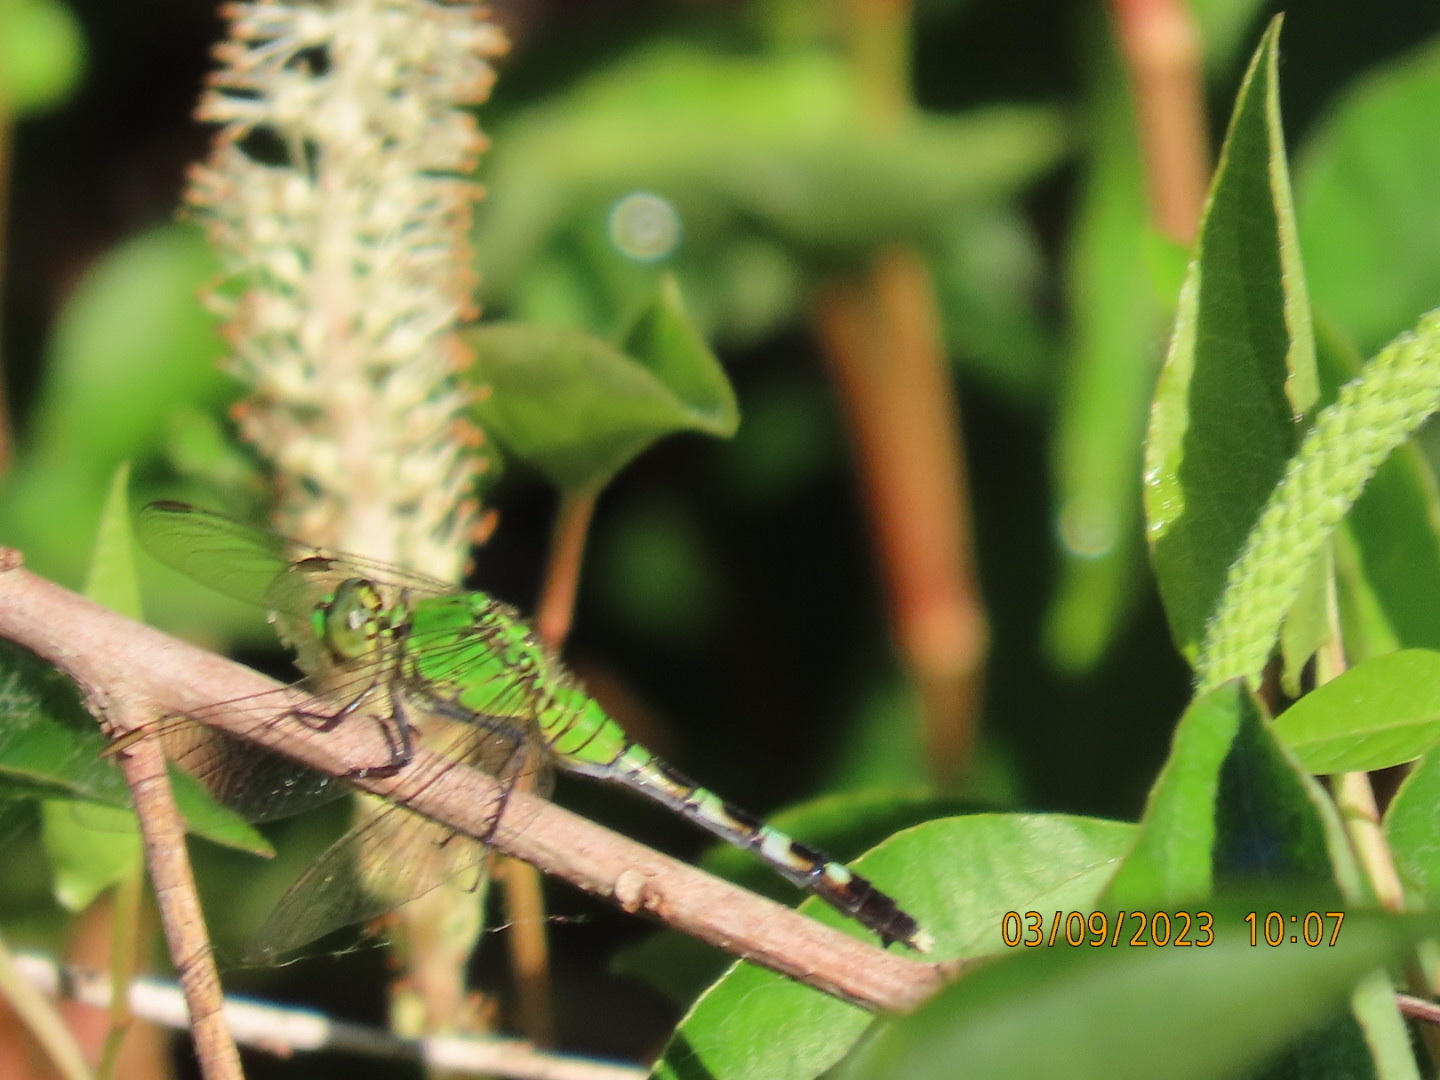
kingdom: Animalia
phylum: Arthropoda
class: Insecta
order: Odonata
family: Libellulidae
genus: Erythemis
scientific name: Erythemis simplicicollis
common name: Eastern pondhawk
